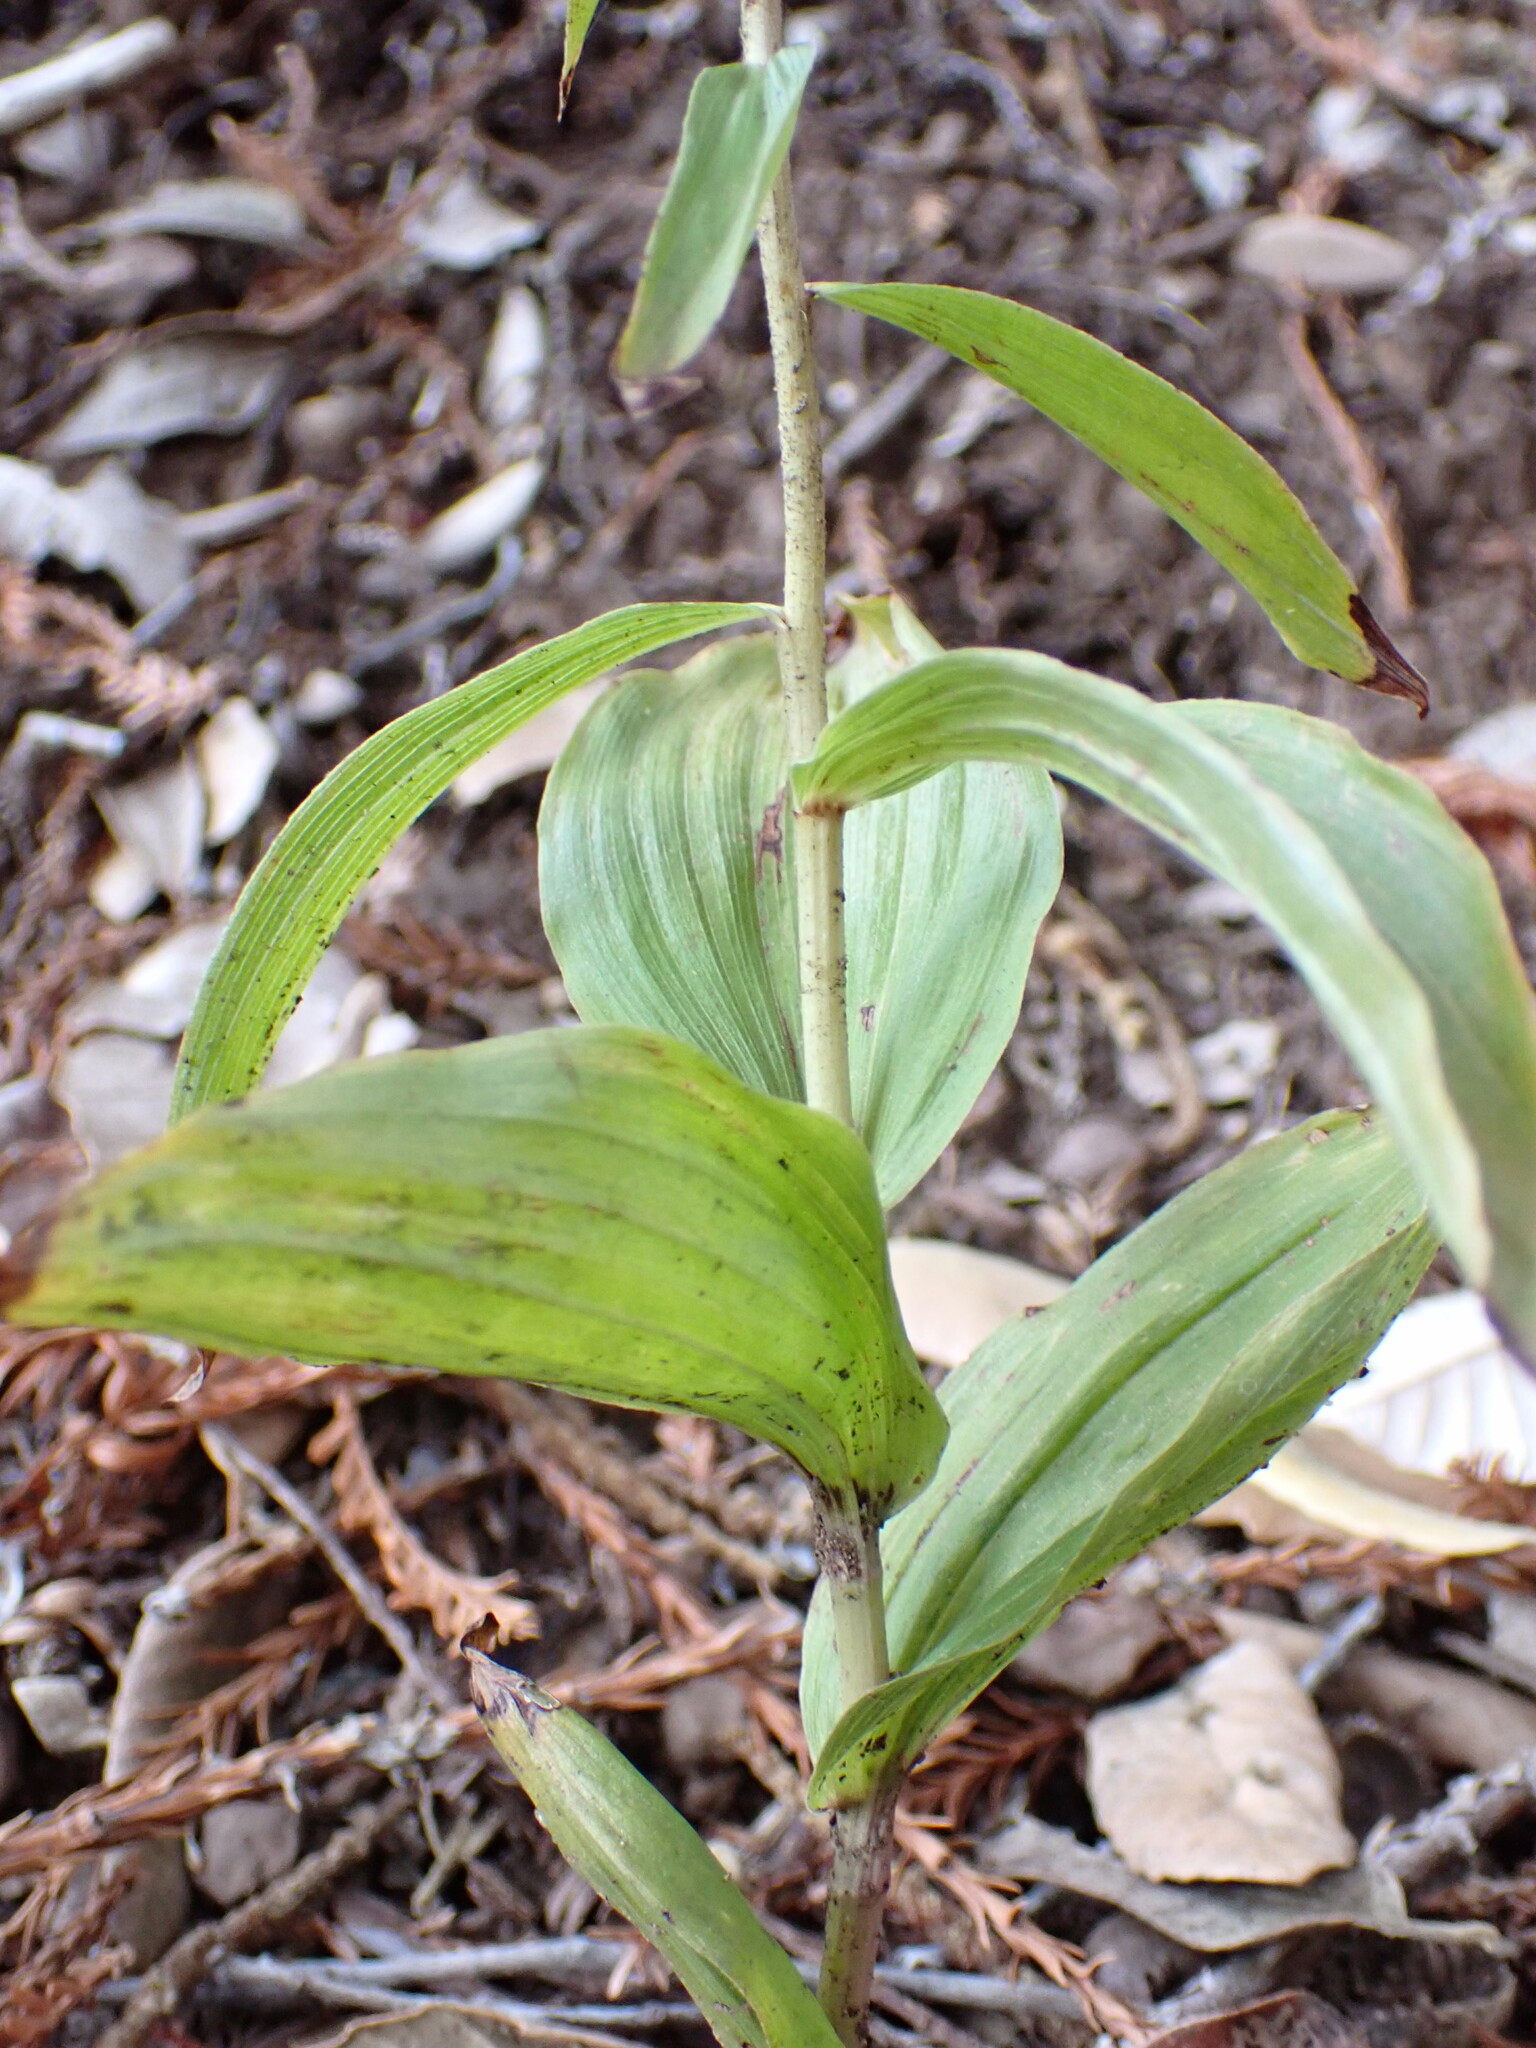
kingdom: Plantae
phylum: Tracheophyta
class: Liliopsida
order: Asparagales
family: Orchidaceae
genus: Epipactis
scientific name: Epipactis helleborine
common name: Broad-leaved helleborine
